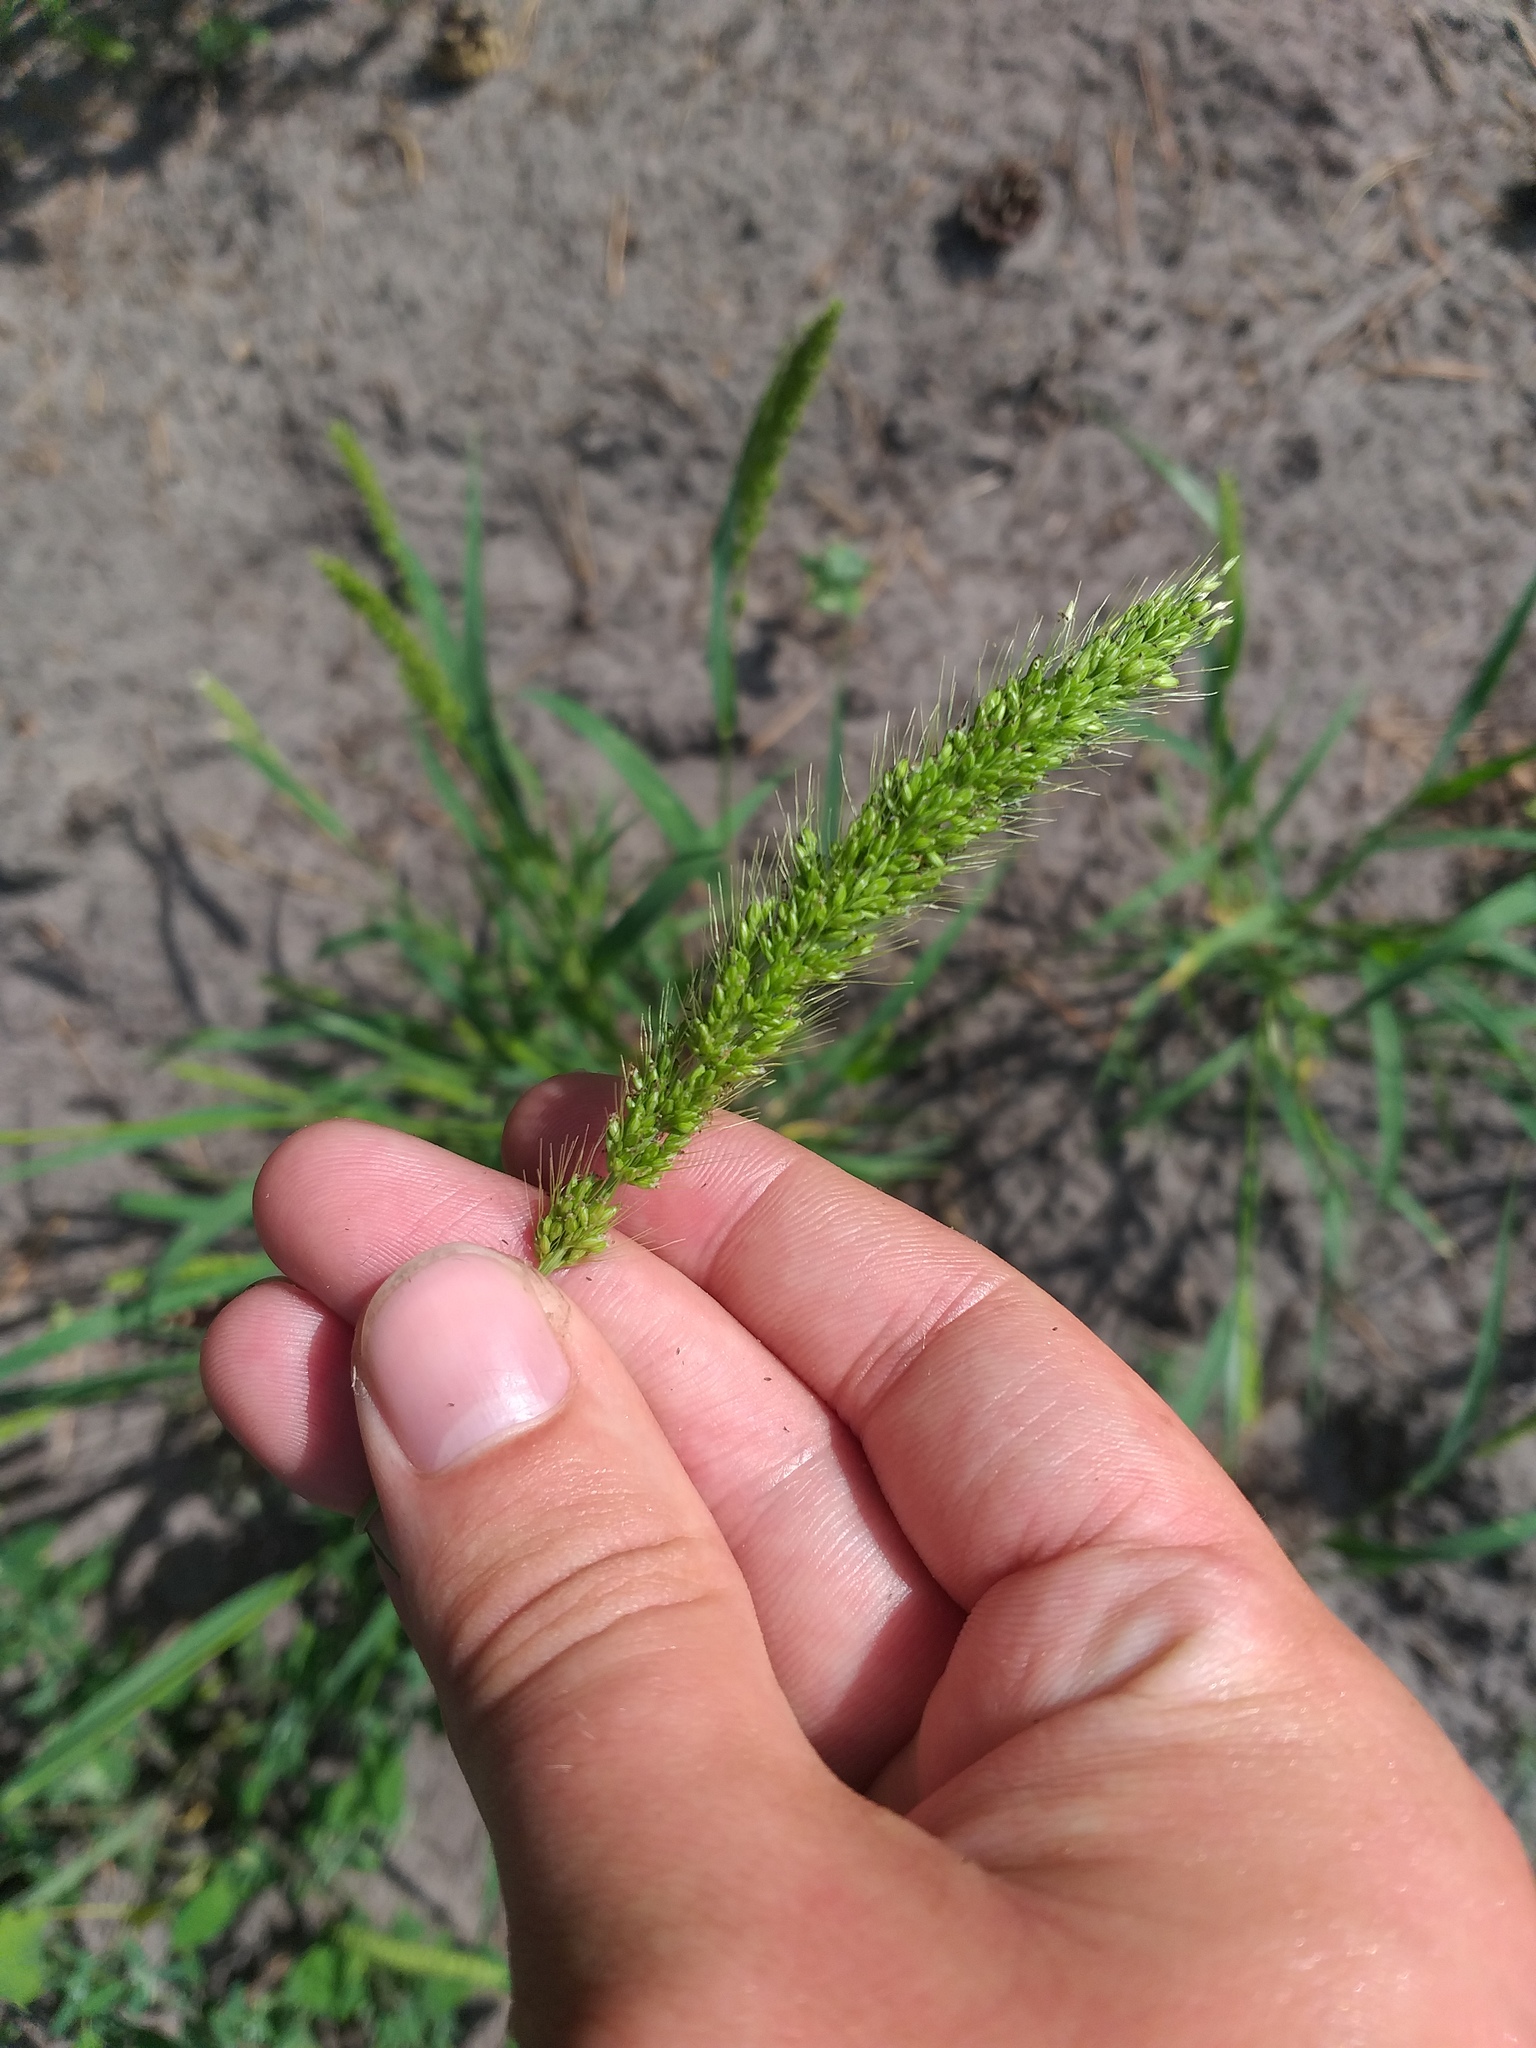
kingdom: Plantae
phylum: Tracheophyta
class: Liliopsida
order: Poales
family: Poaceae
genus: Setaria
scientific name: Setaria verticillata
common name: Hooked bristlegrass
